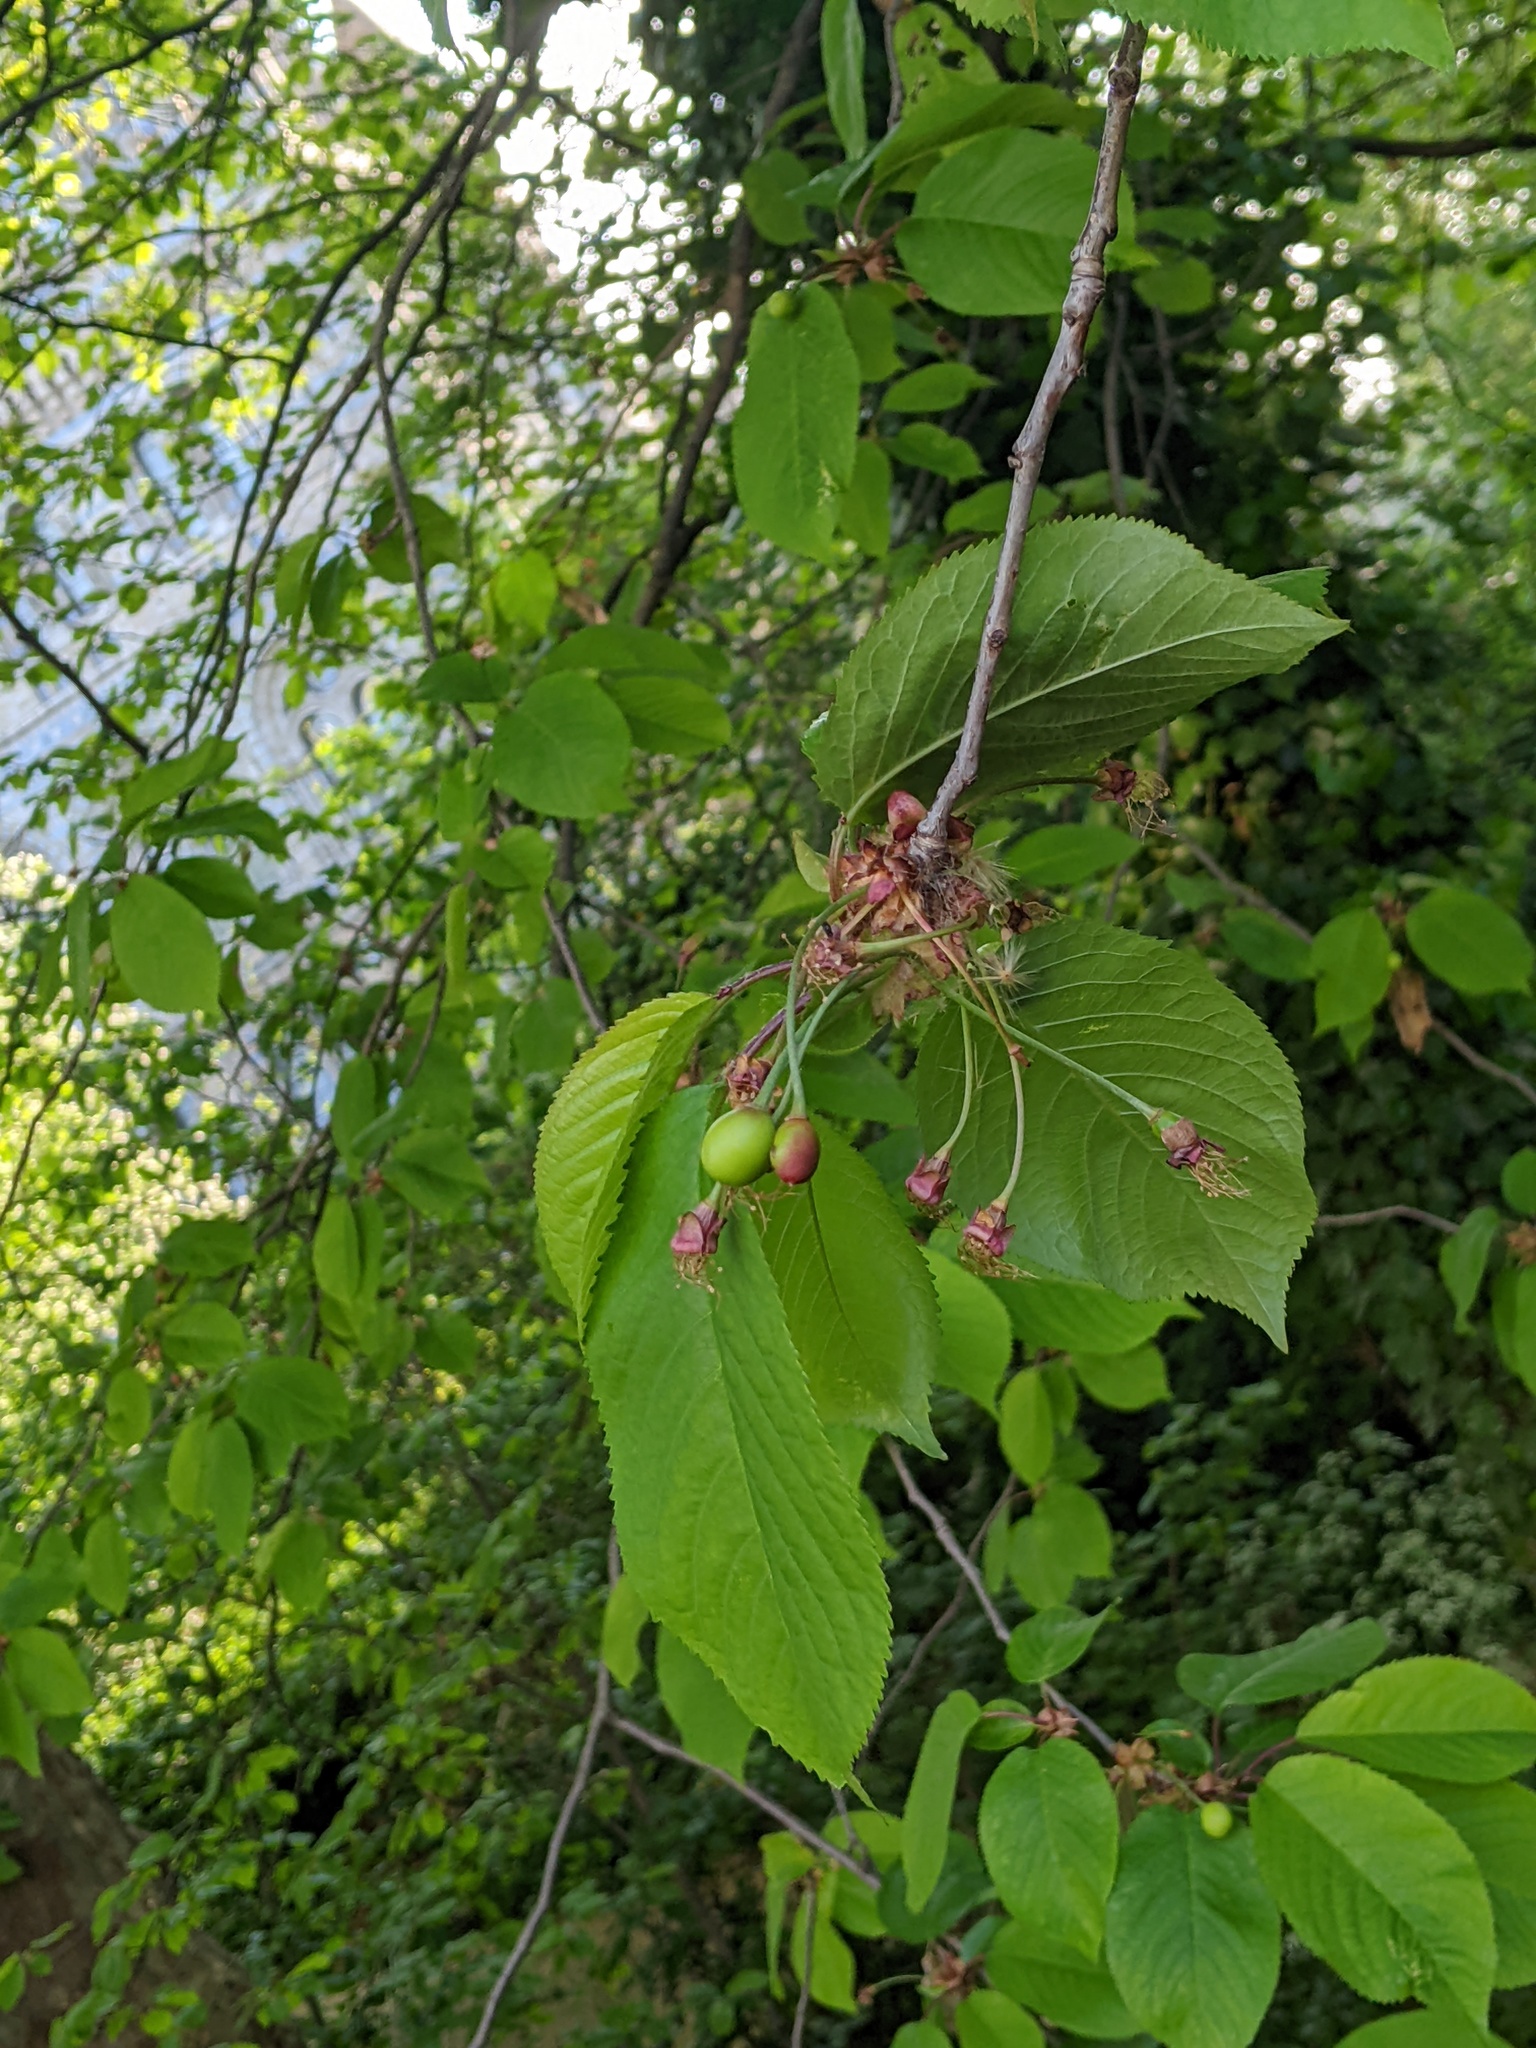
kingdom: Plantae
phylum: Tracheophyta
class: Magnoliopsida
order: Rosales
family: Rosaceae
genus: Prunus
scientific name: Prunus avium
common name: Sweet cherry
